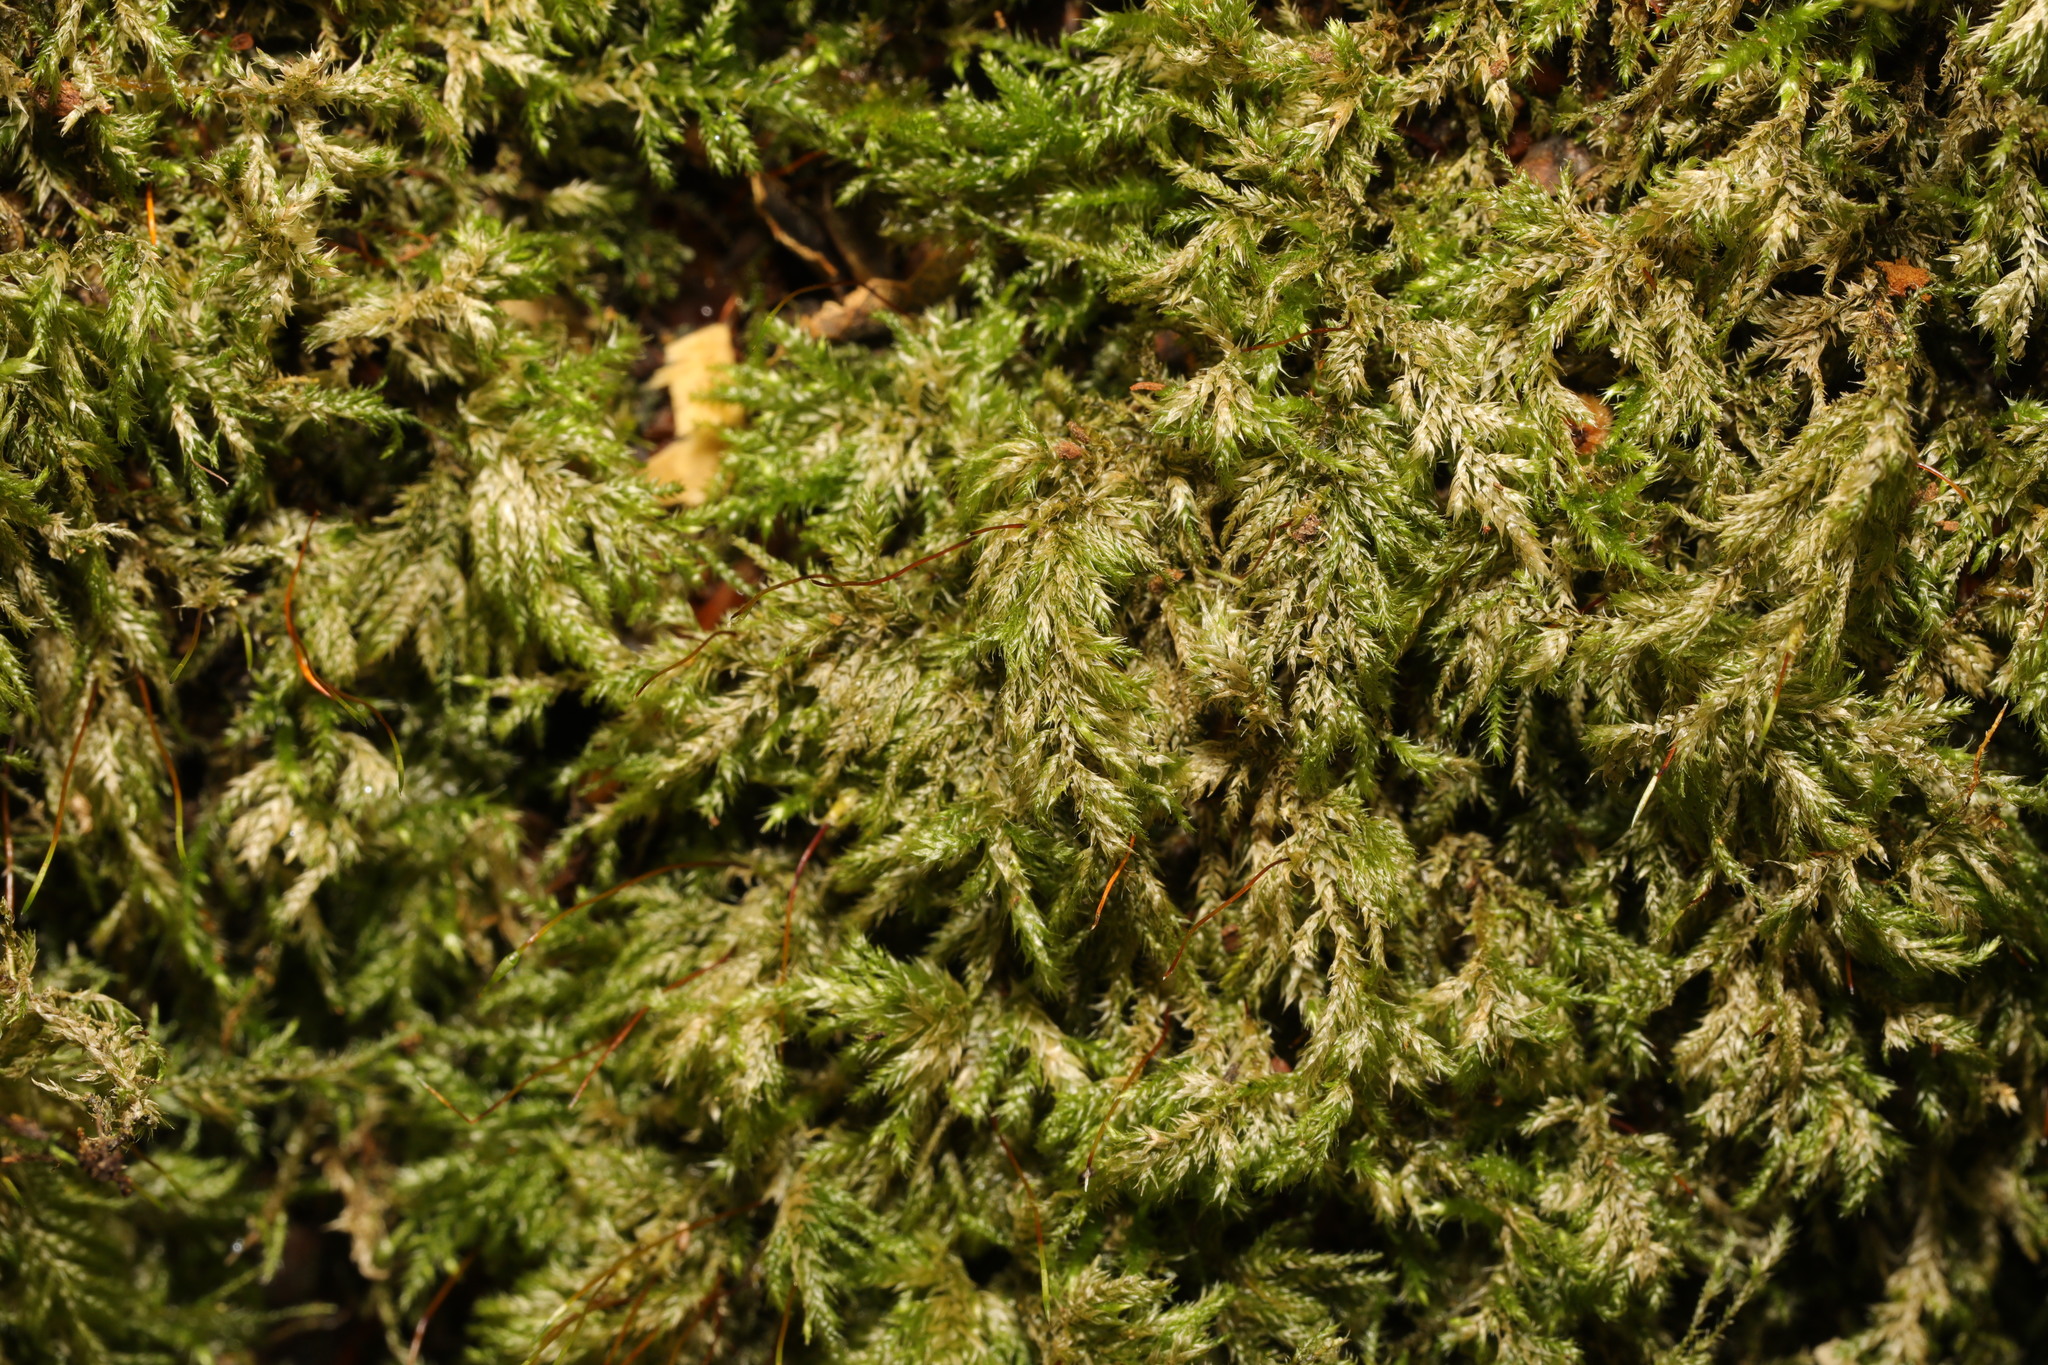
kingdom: Plantae
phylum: Bryophyta
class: Bryopsida
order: Hypnales
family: Lembophyllaceae
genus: Pseudisothecium
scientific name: Pseudisothecium myosuroides
